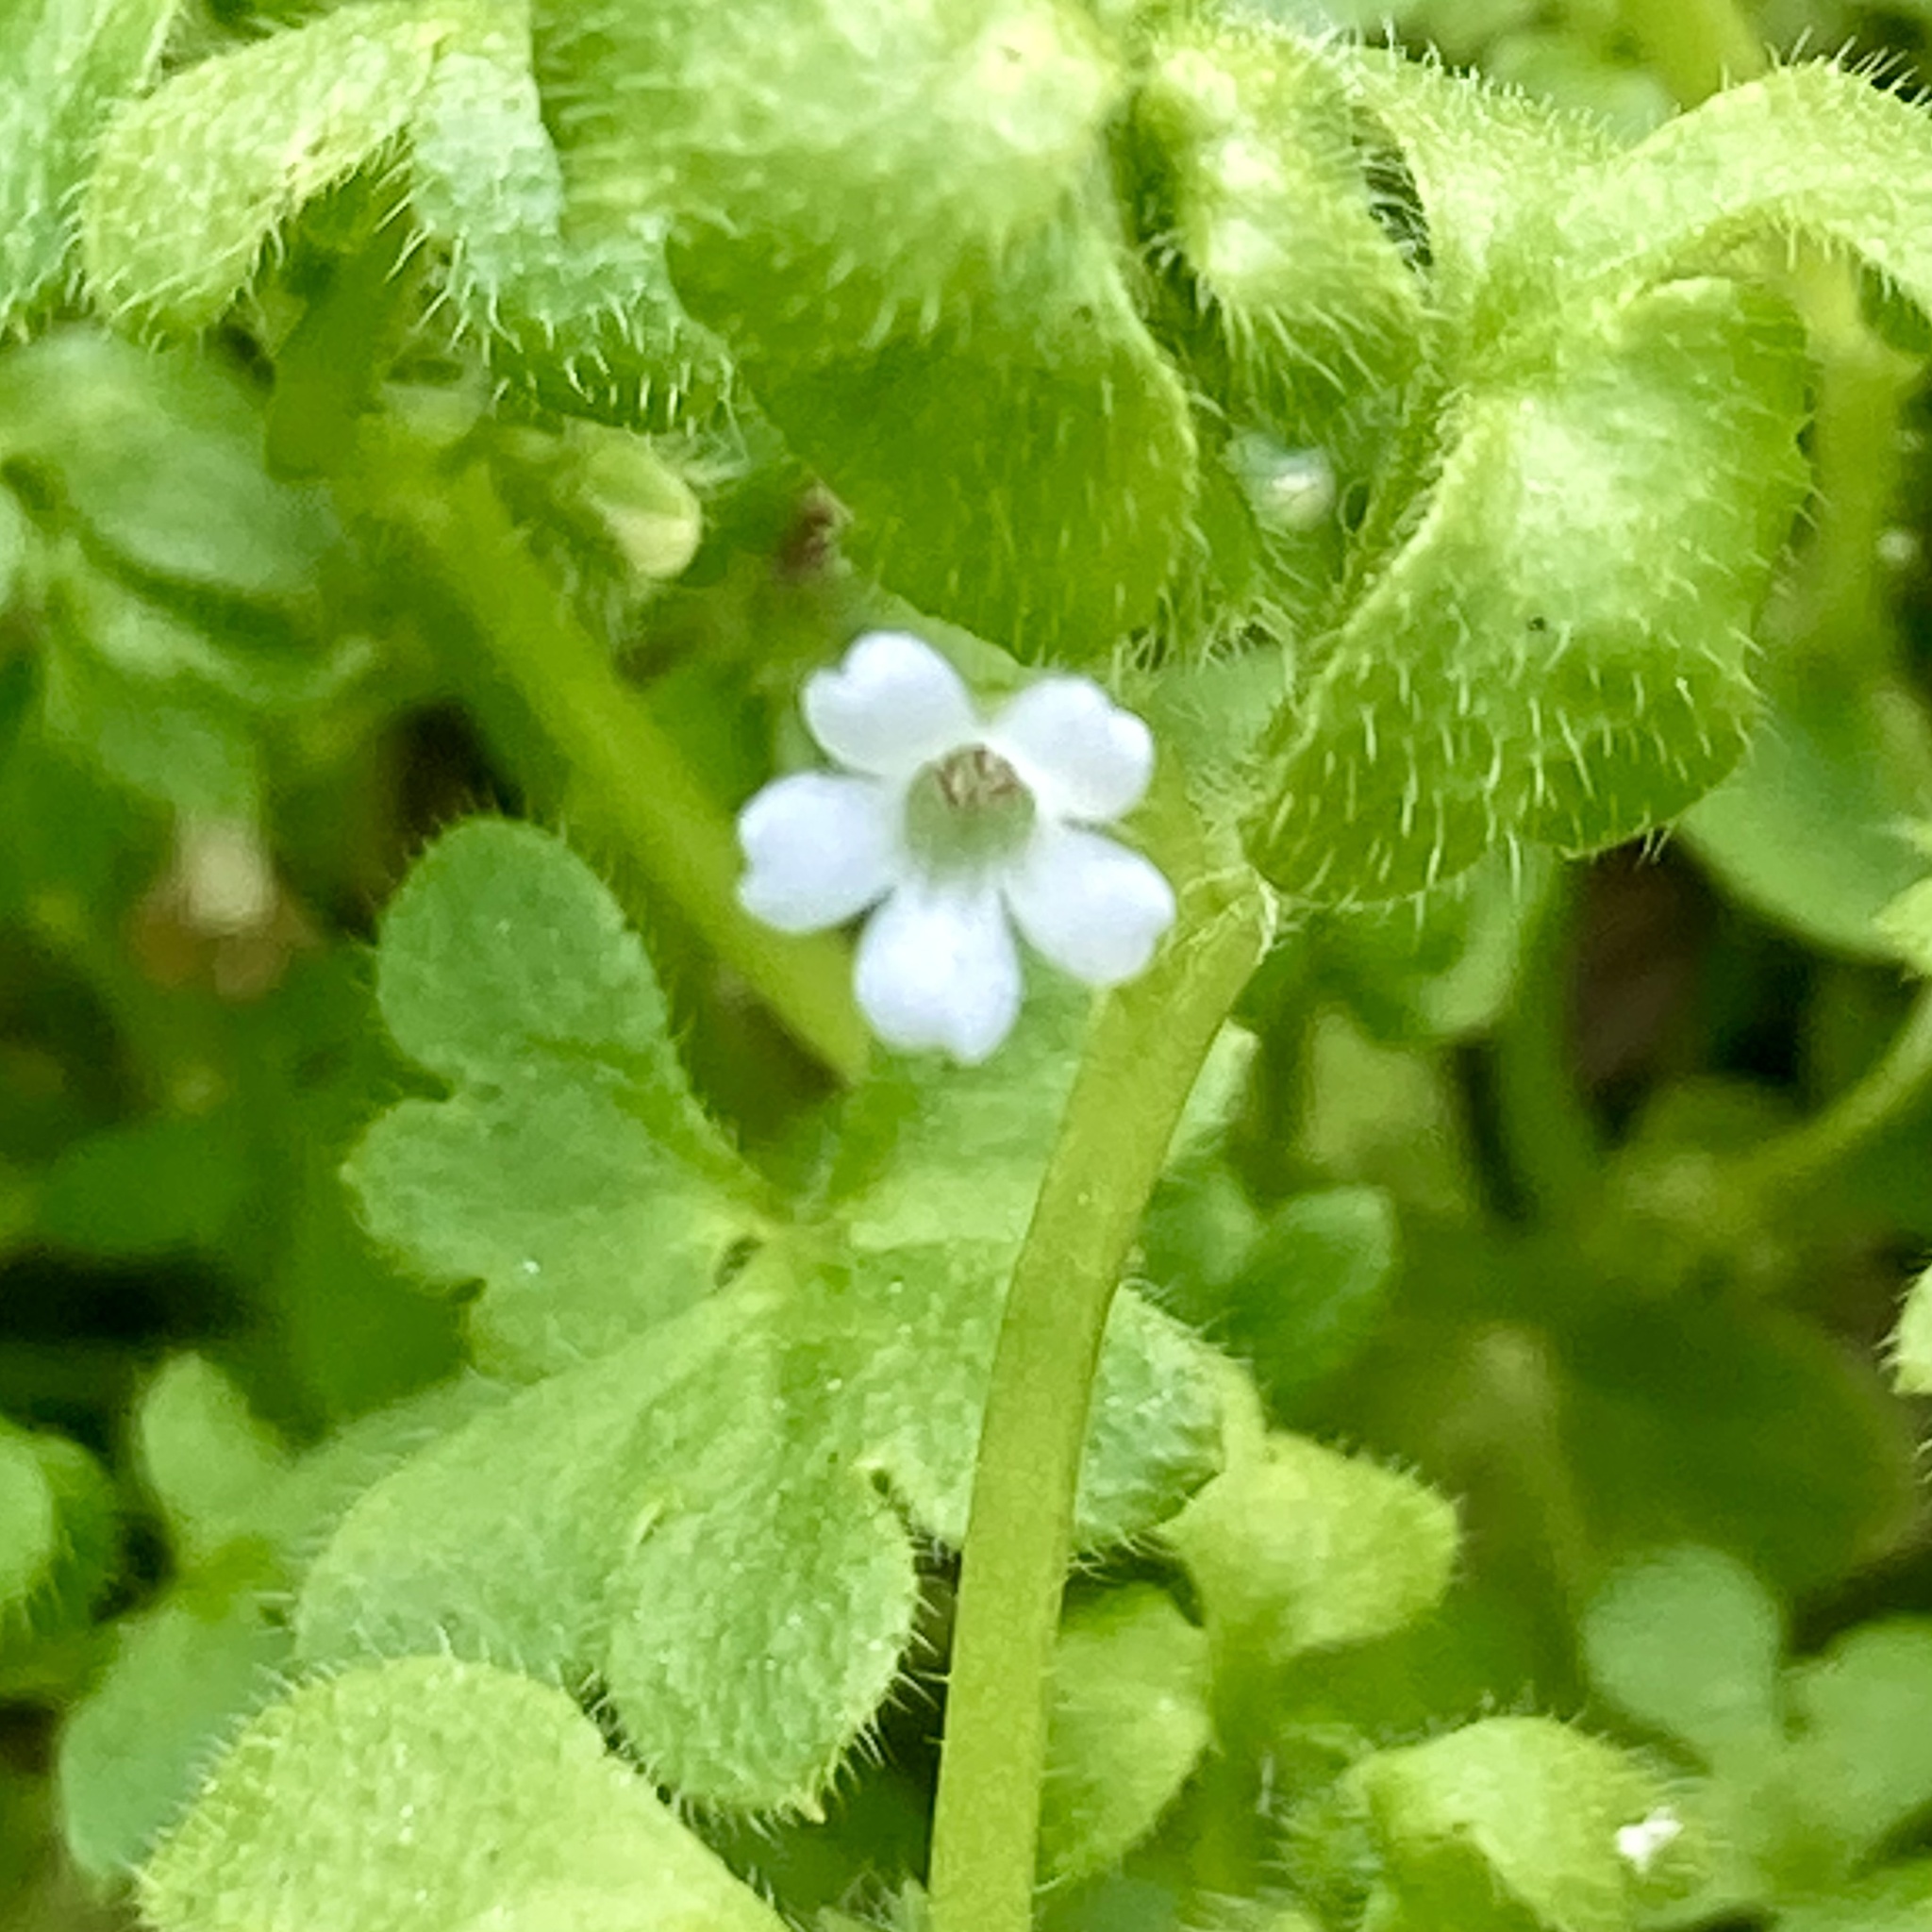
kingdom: Plantae
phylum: Tracheophyta
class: Magnoliopsida
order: Boraginales
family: Hydrophyllaceae
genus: Nemophila
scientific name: Nemophila aphylla
